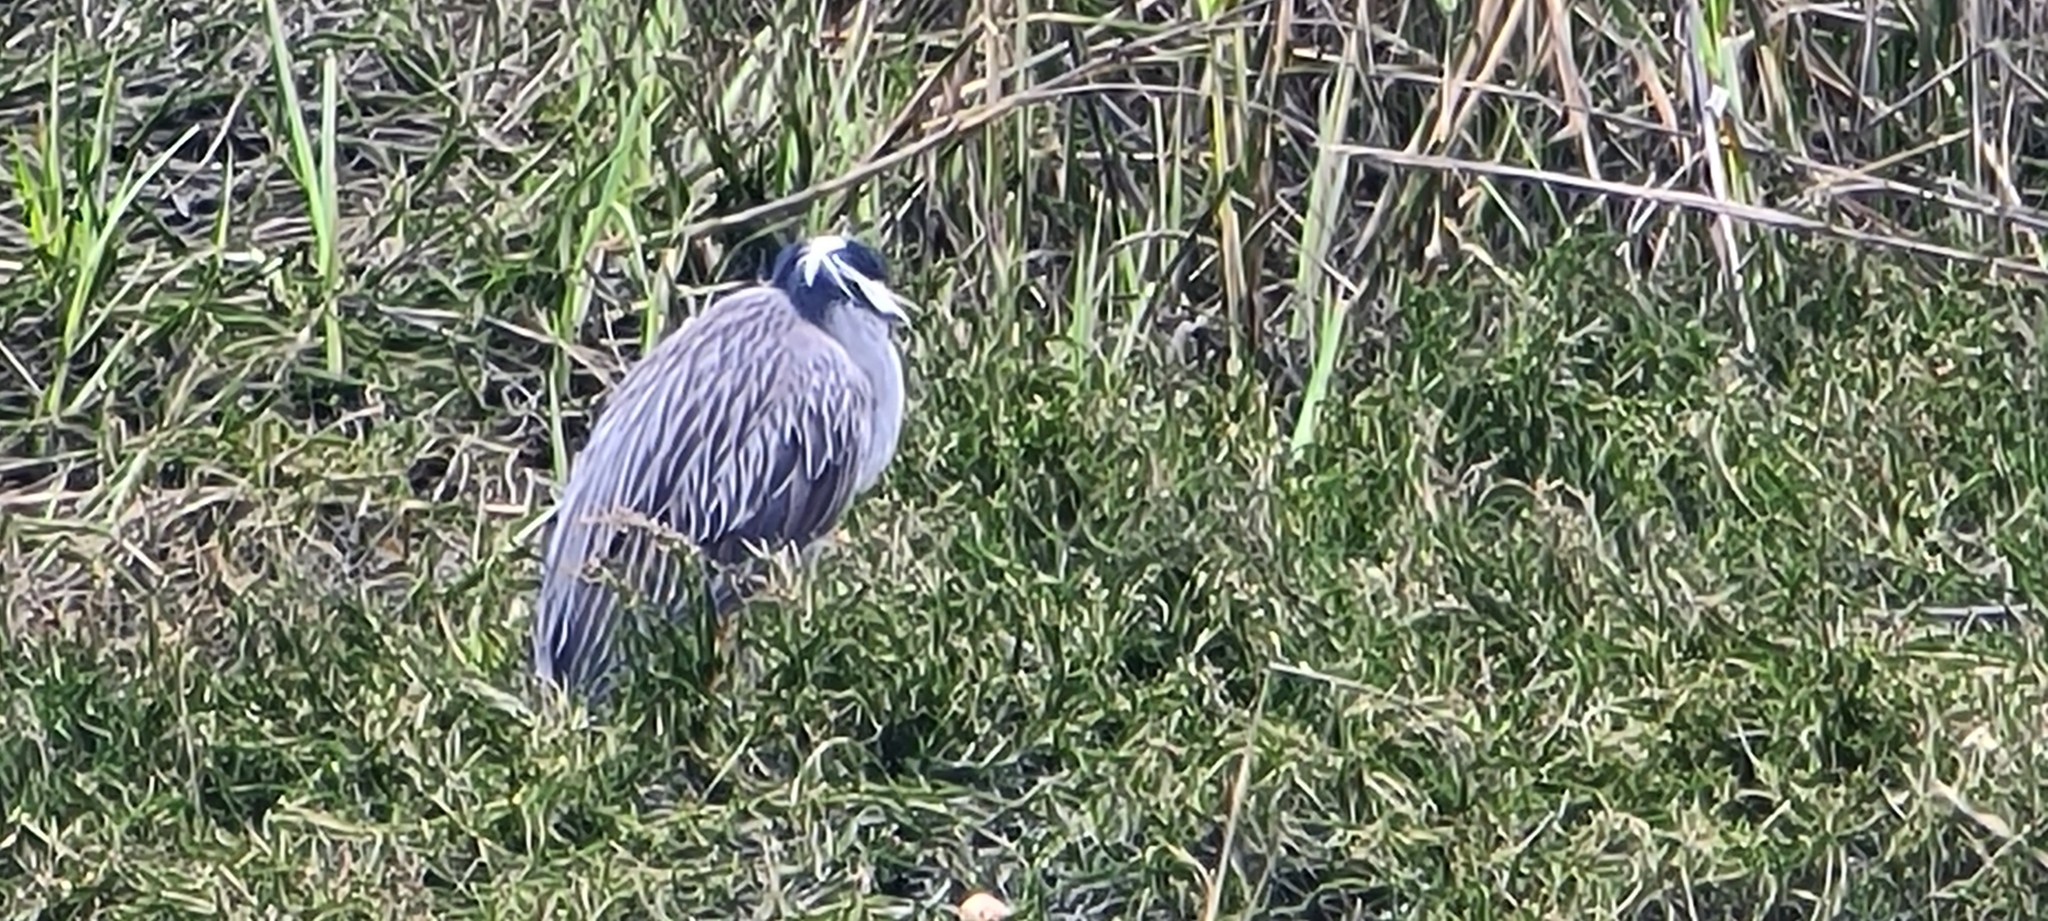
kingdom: Animalia
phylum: Chordata
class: Aves
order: Pelecaniformes
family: Ardeidae
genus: Nyctanassa
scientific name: Nyctanassa violacea
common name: Yellow-crowned night heron
